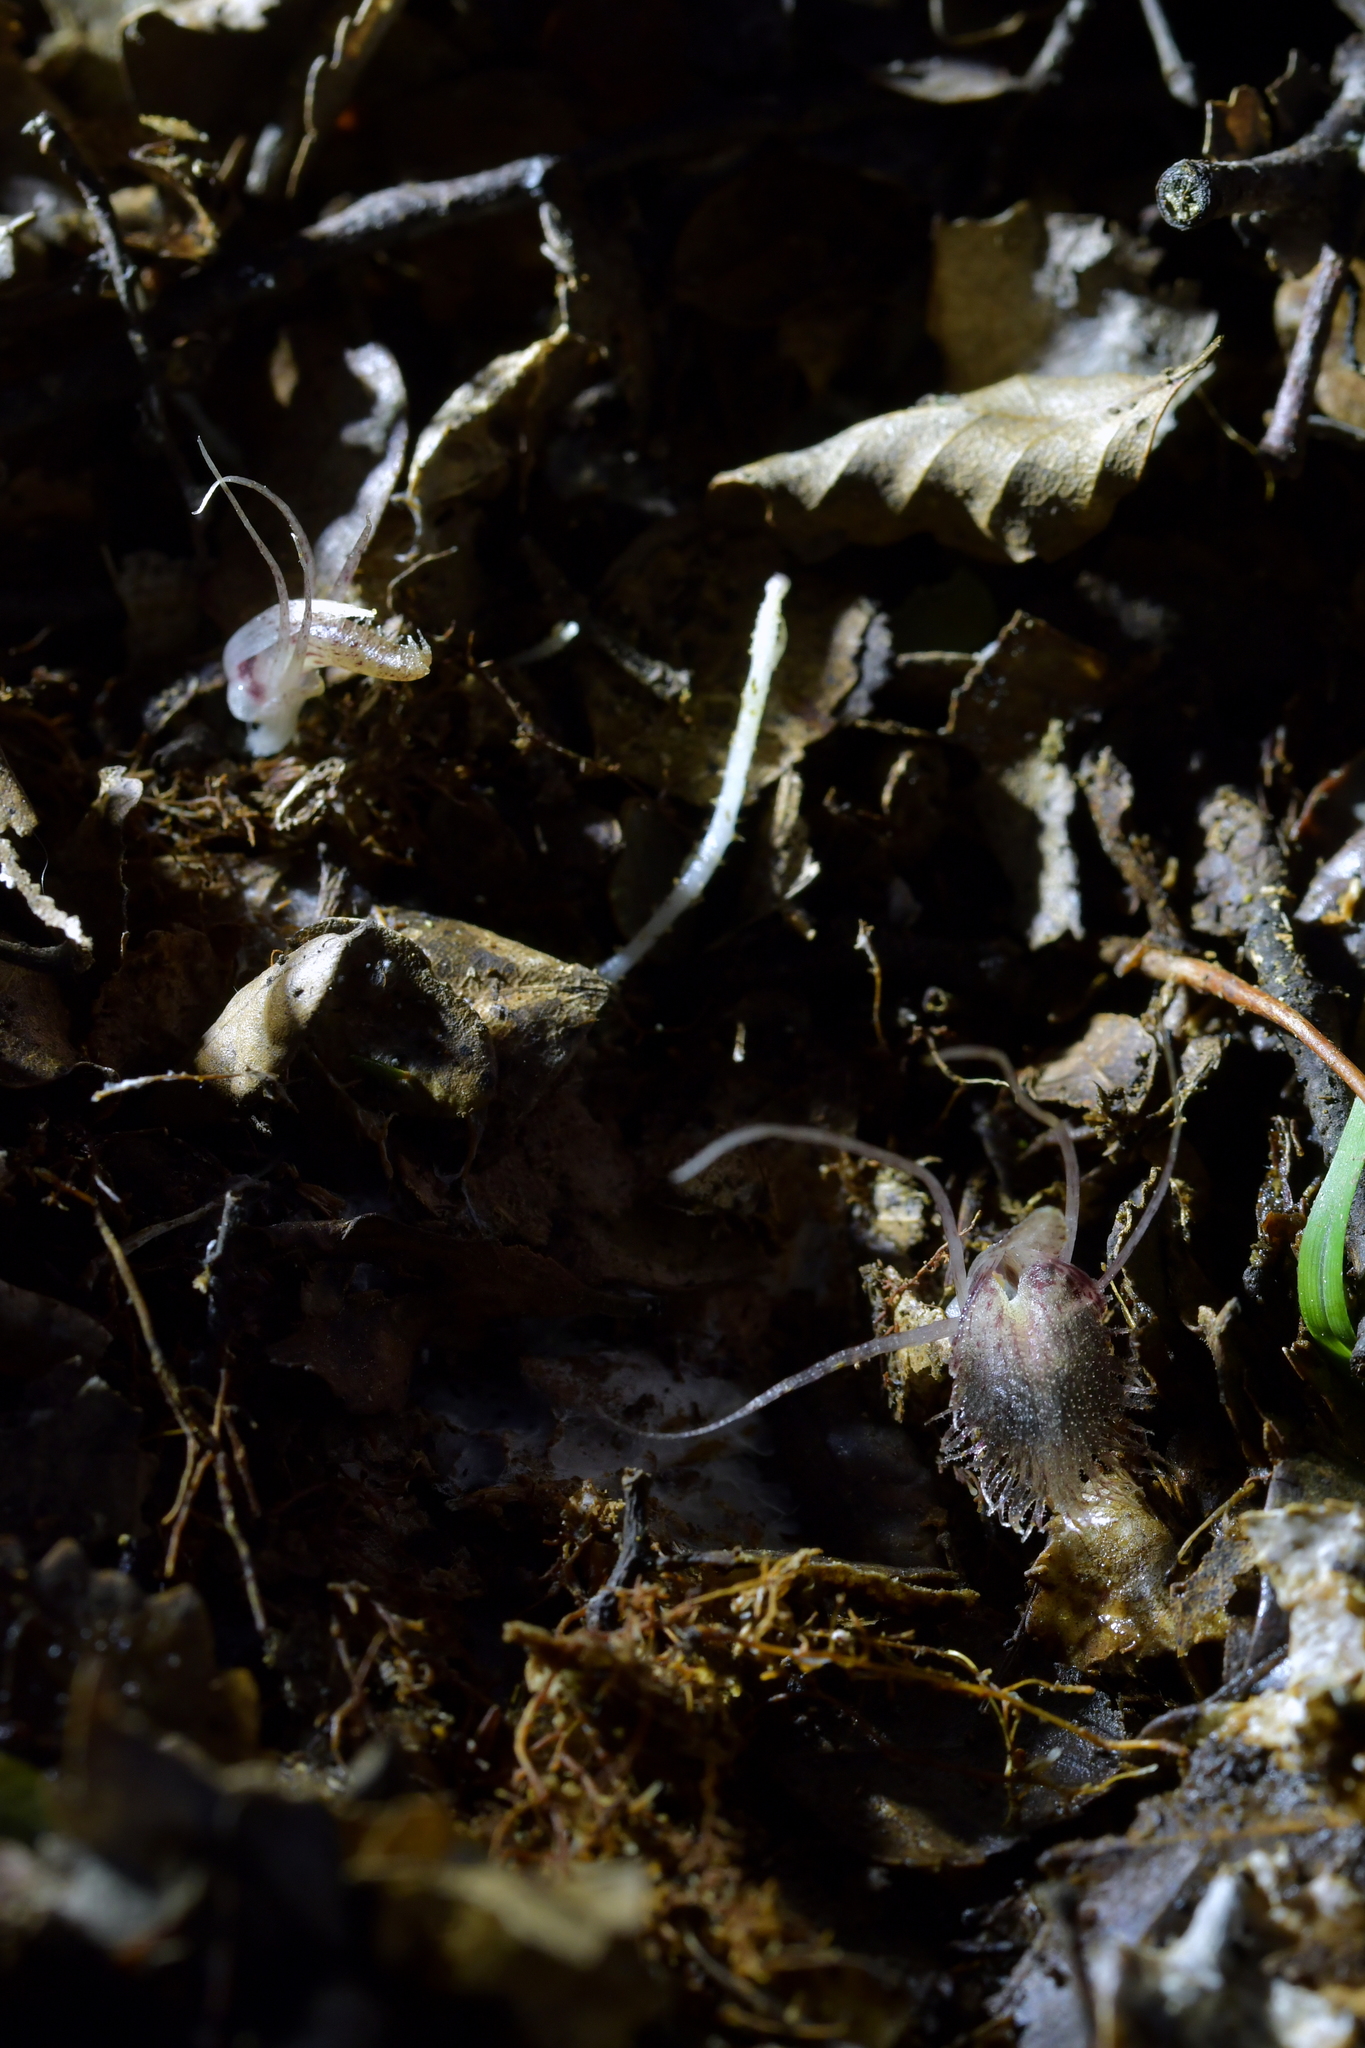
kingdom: Plantae
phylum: Tracheophyta
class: Liliopsida
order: Asparagales
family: Orchidaceae
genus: Corybas
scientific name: Corybas cryptanthus
